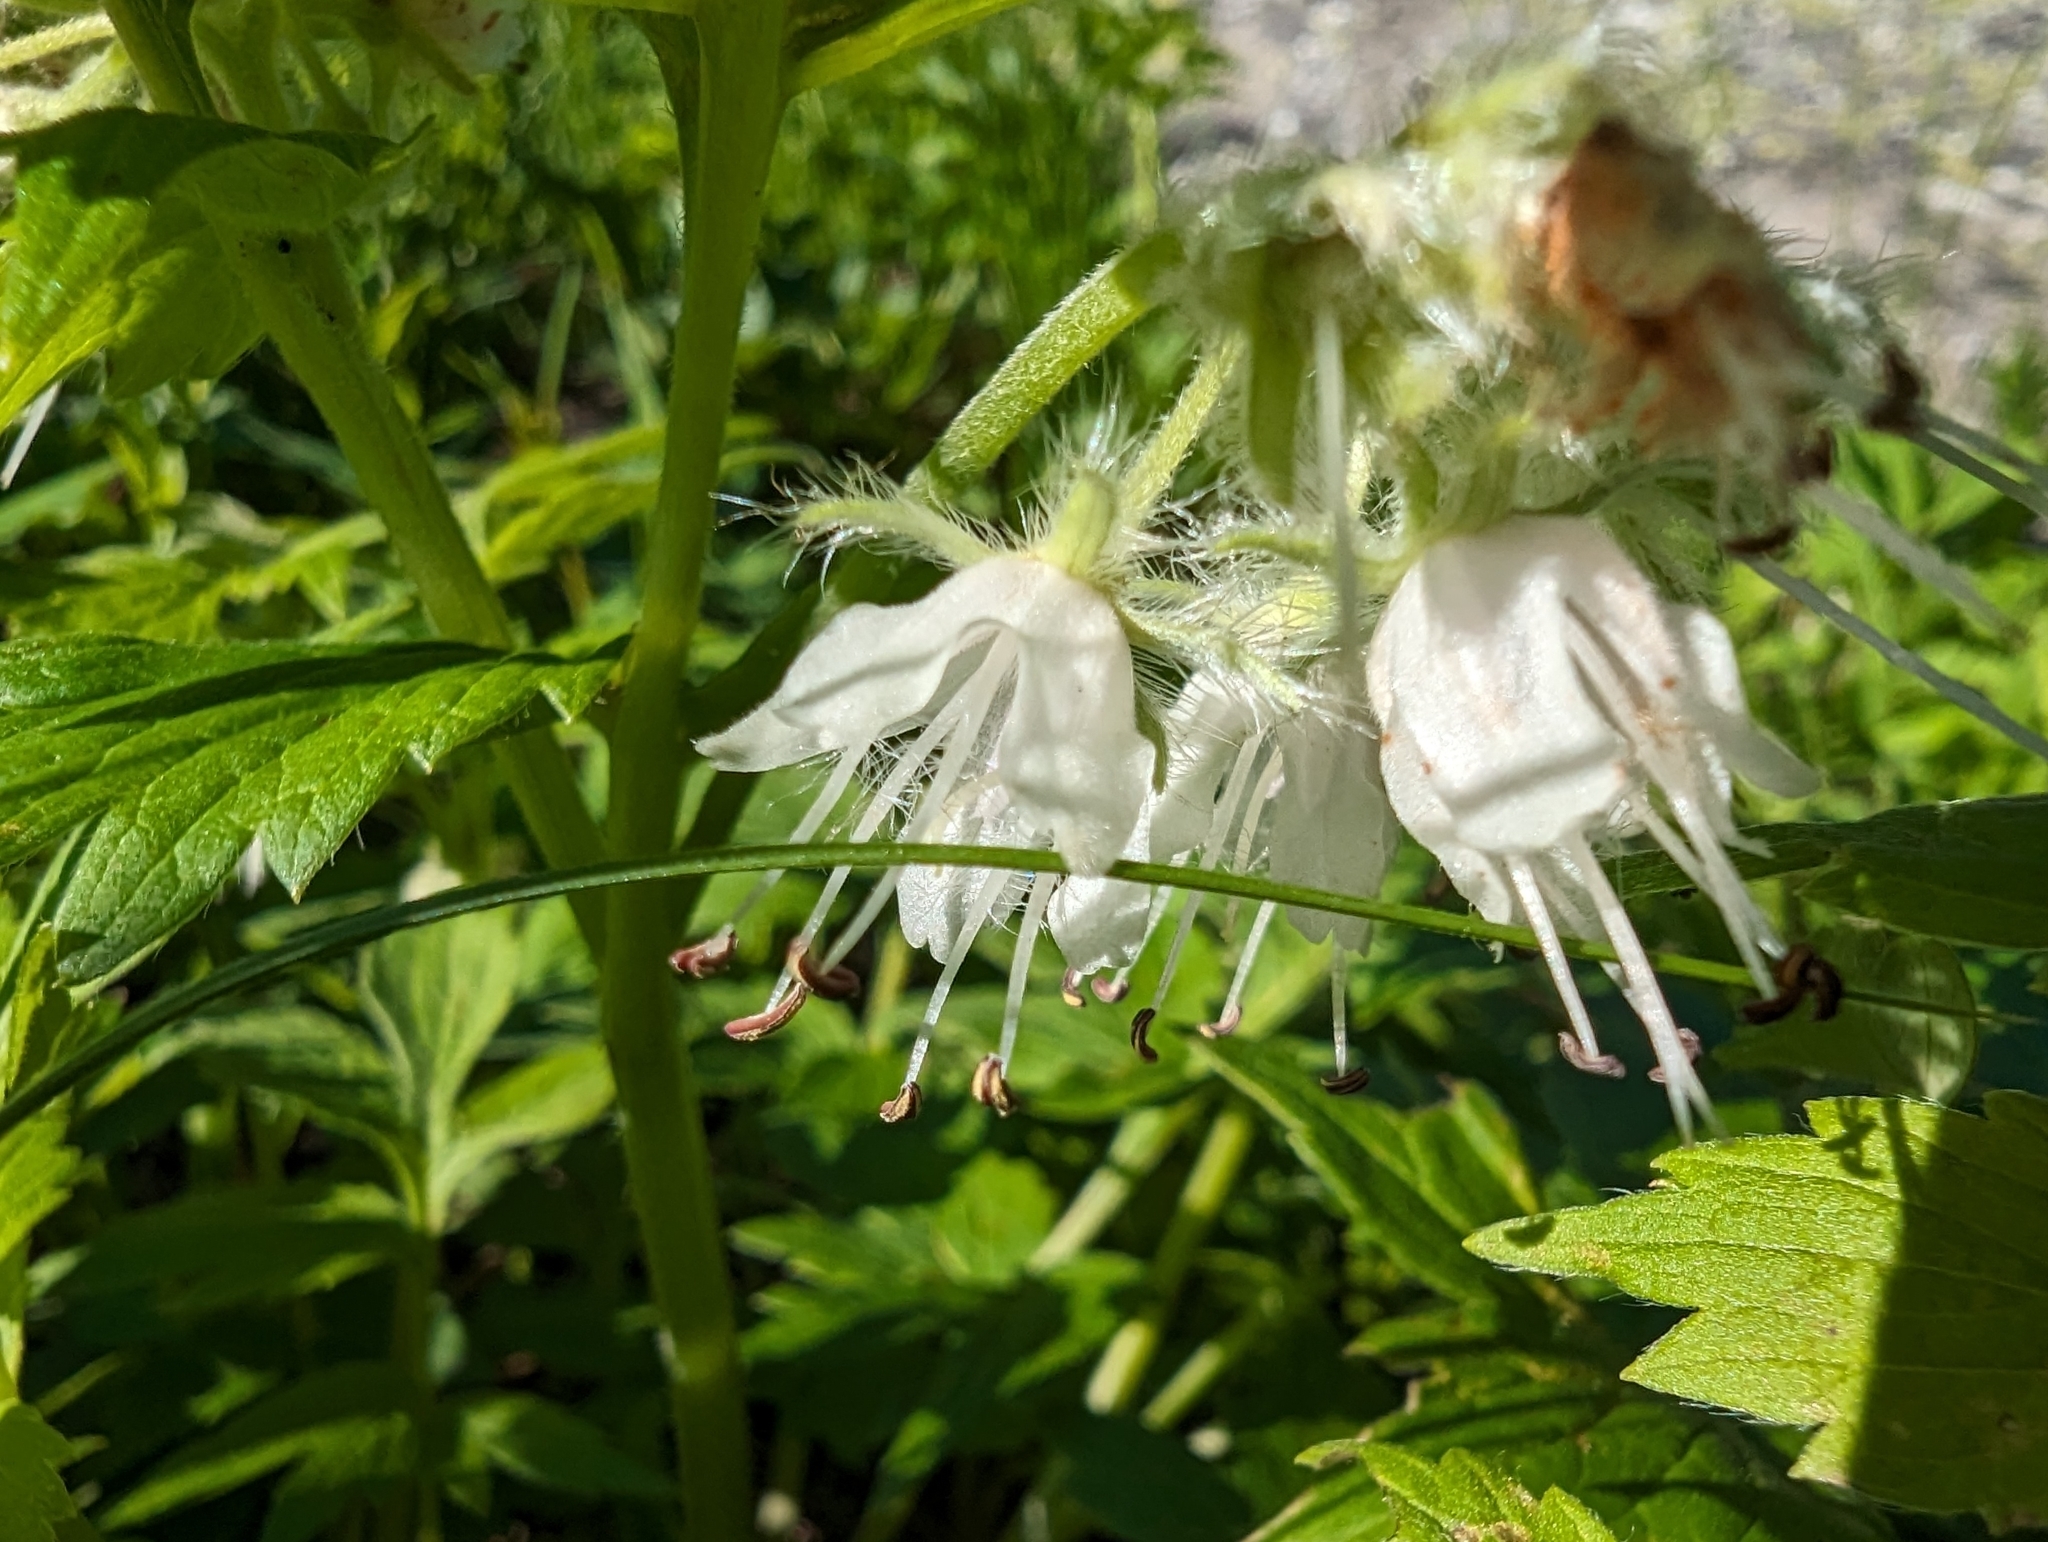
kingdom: Plantae
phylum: Tracheophyta
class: Magnoliopsida
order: Boraginales
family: Hydrophyllaceae
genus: Hydrophyllum
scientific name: Hydrophyllum fendleri
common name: Fendler's waterleaf
